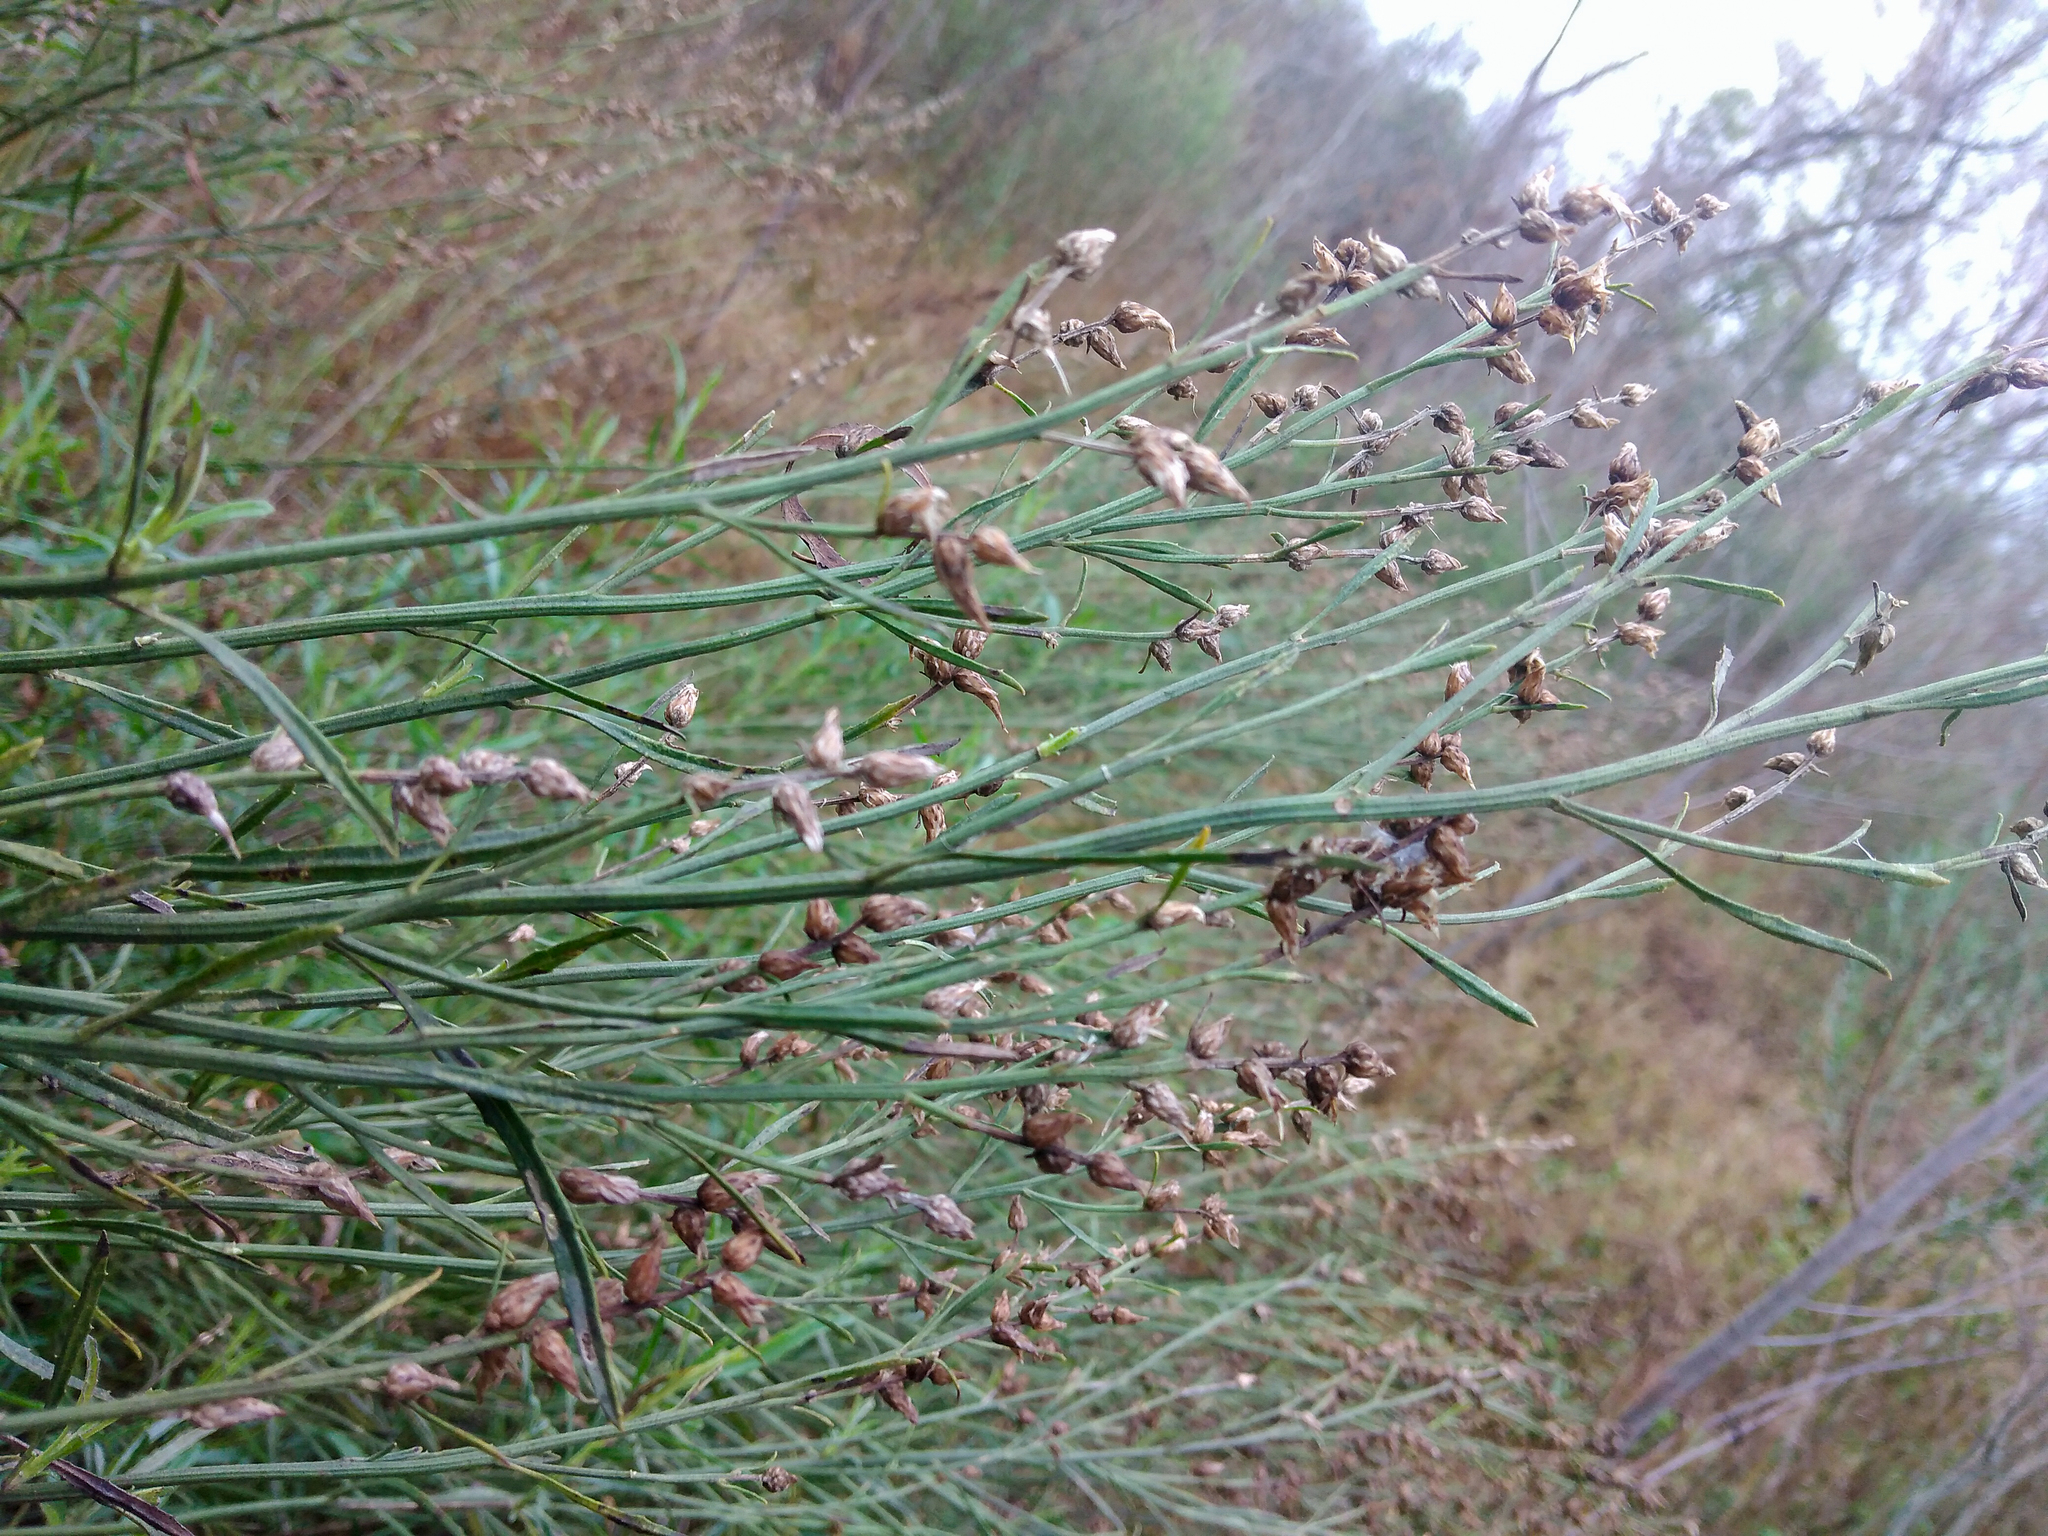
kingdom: Plantae
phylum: Tracheophyta
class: Magnoliopsida
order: Asterales
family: Asteraceae
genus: Baccharis
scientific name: Baccharis spicata
